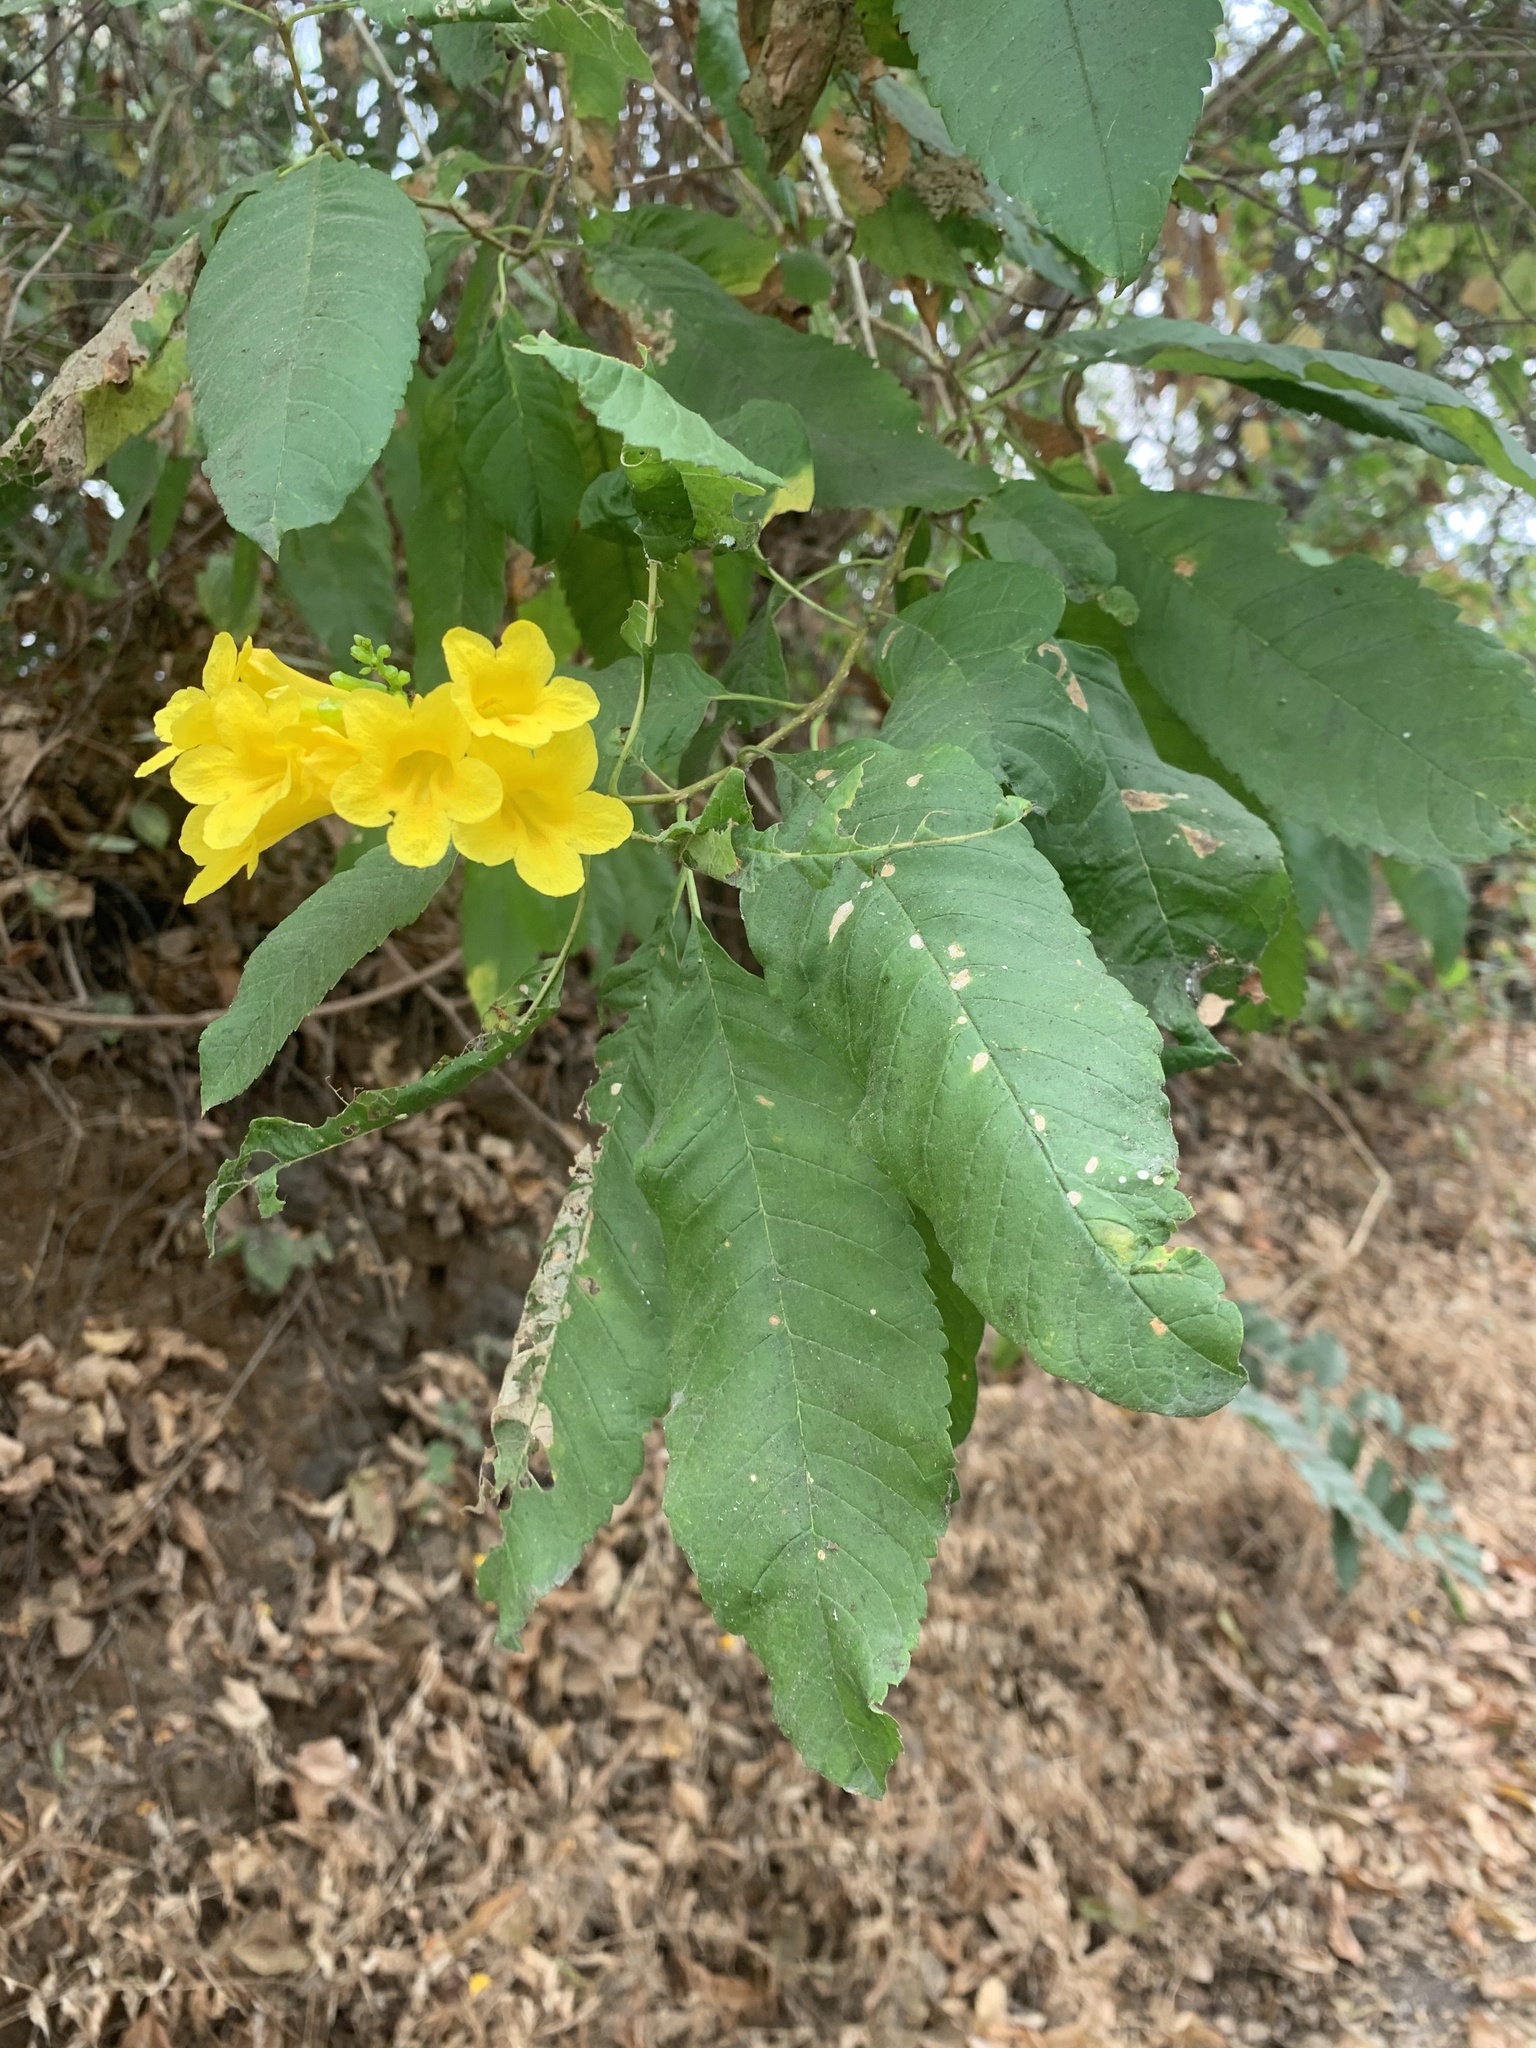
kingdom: Plantae
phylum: Tracheophyta
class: Magnoliopsida
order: Lamiales
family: Bignoniaceae
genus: Tecoma
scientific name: Tecoma castanifolia
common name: Chestnutleaf trumpetbush
